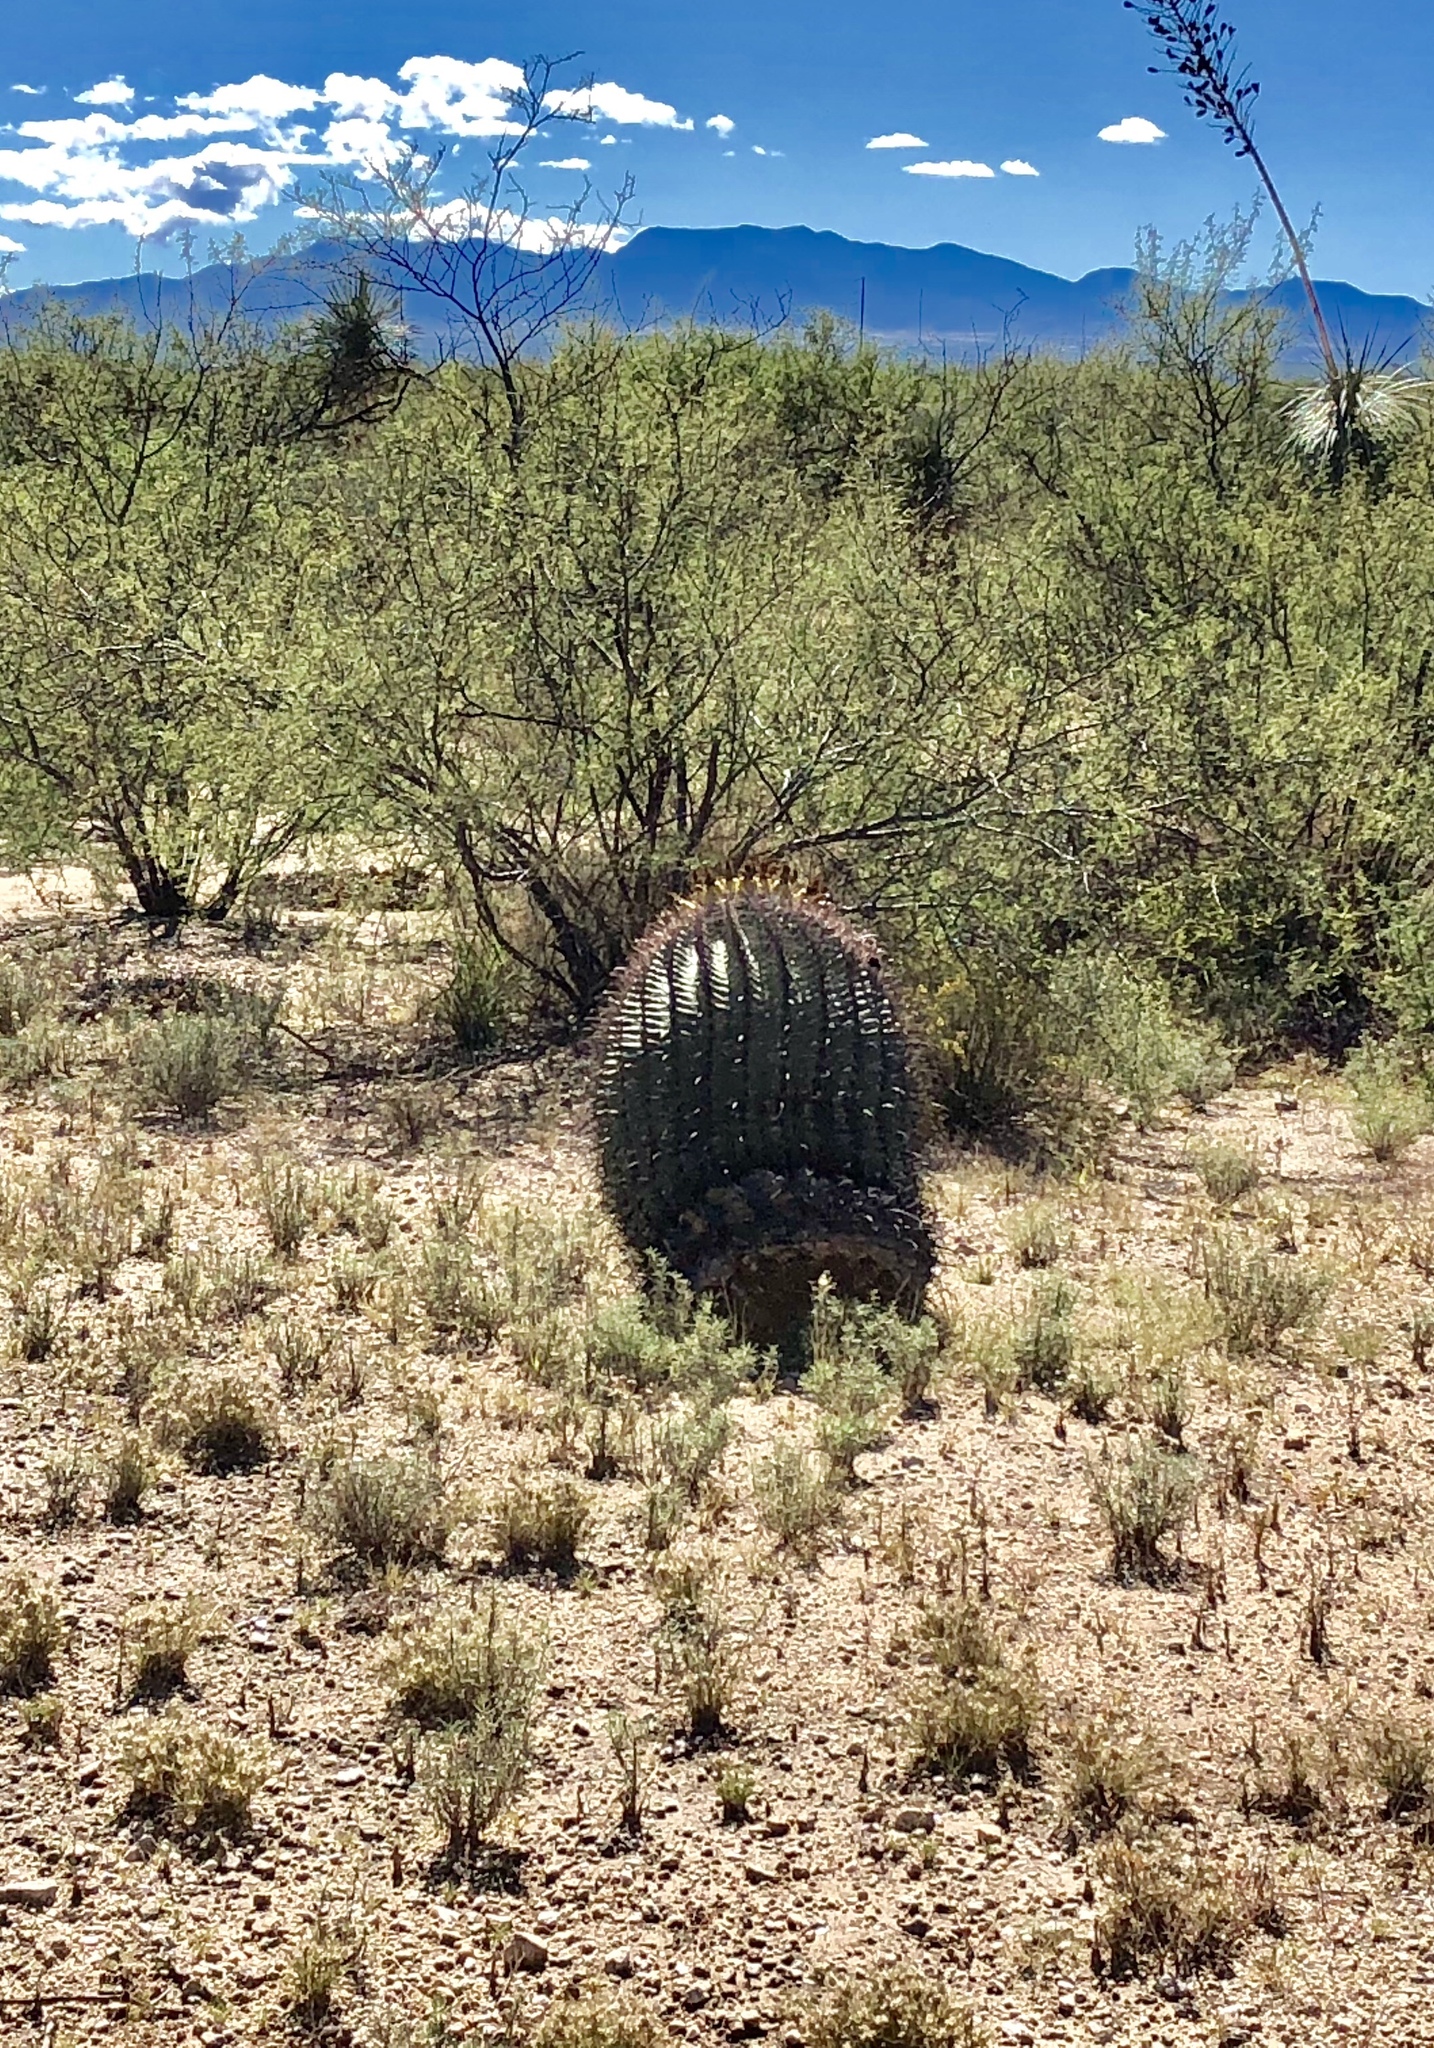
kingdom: Plantae
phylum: Tracheophyta
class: Magnoliopsida
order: Caryophyllales
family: Cactaceae
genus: Ferocactus
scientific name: Ferocactus wislizeni
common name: Candy barrel cactus
